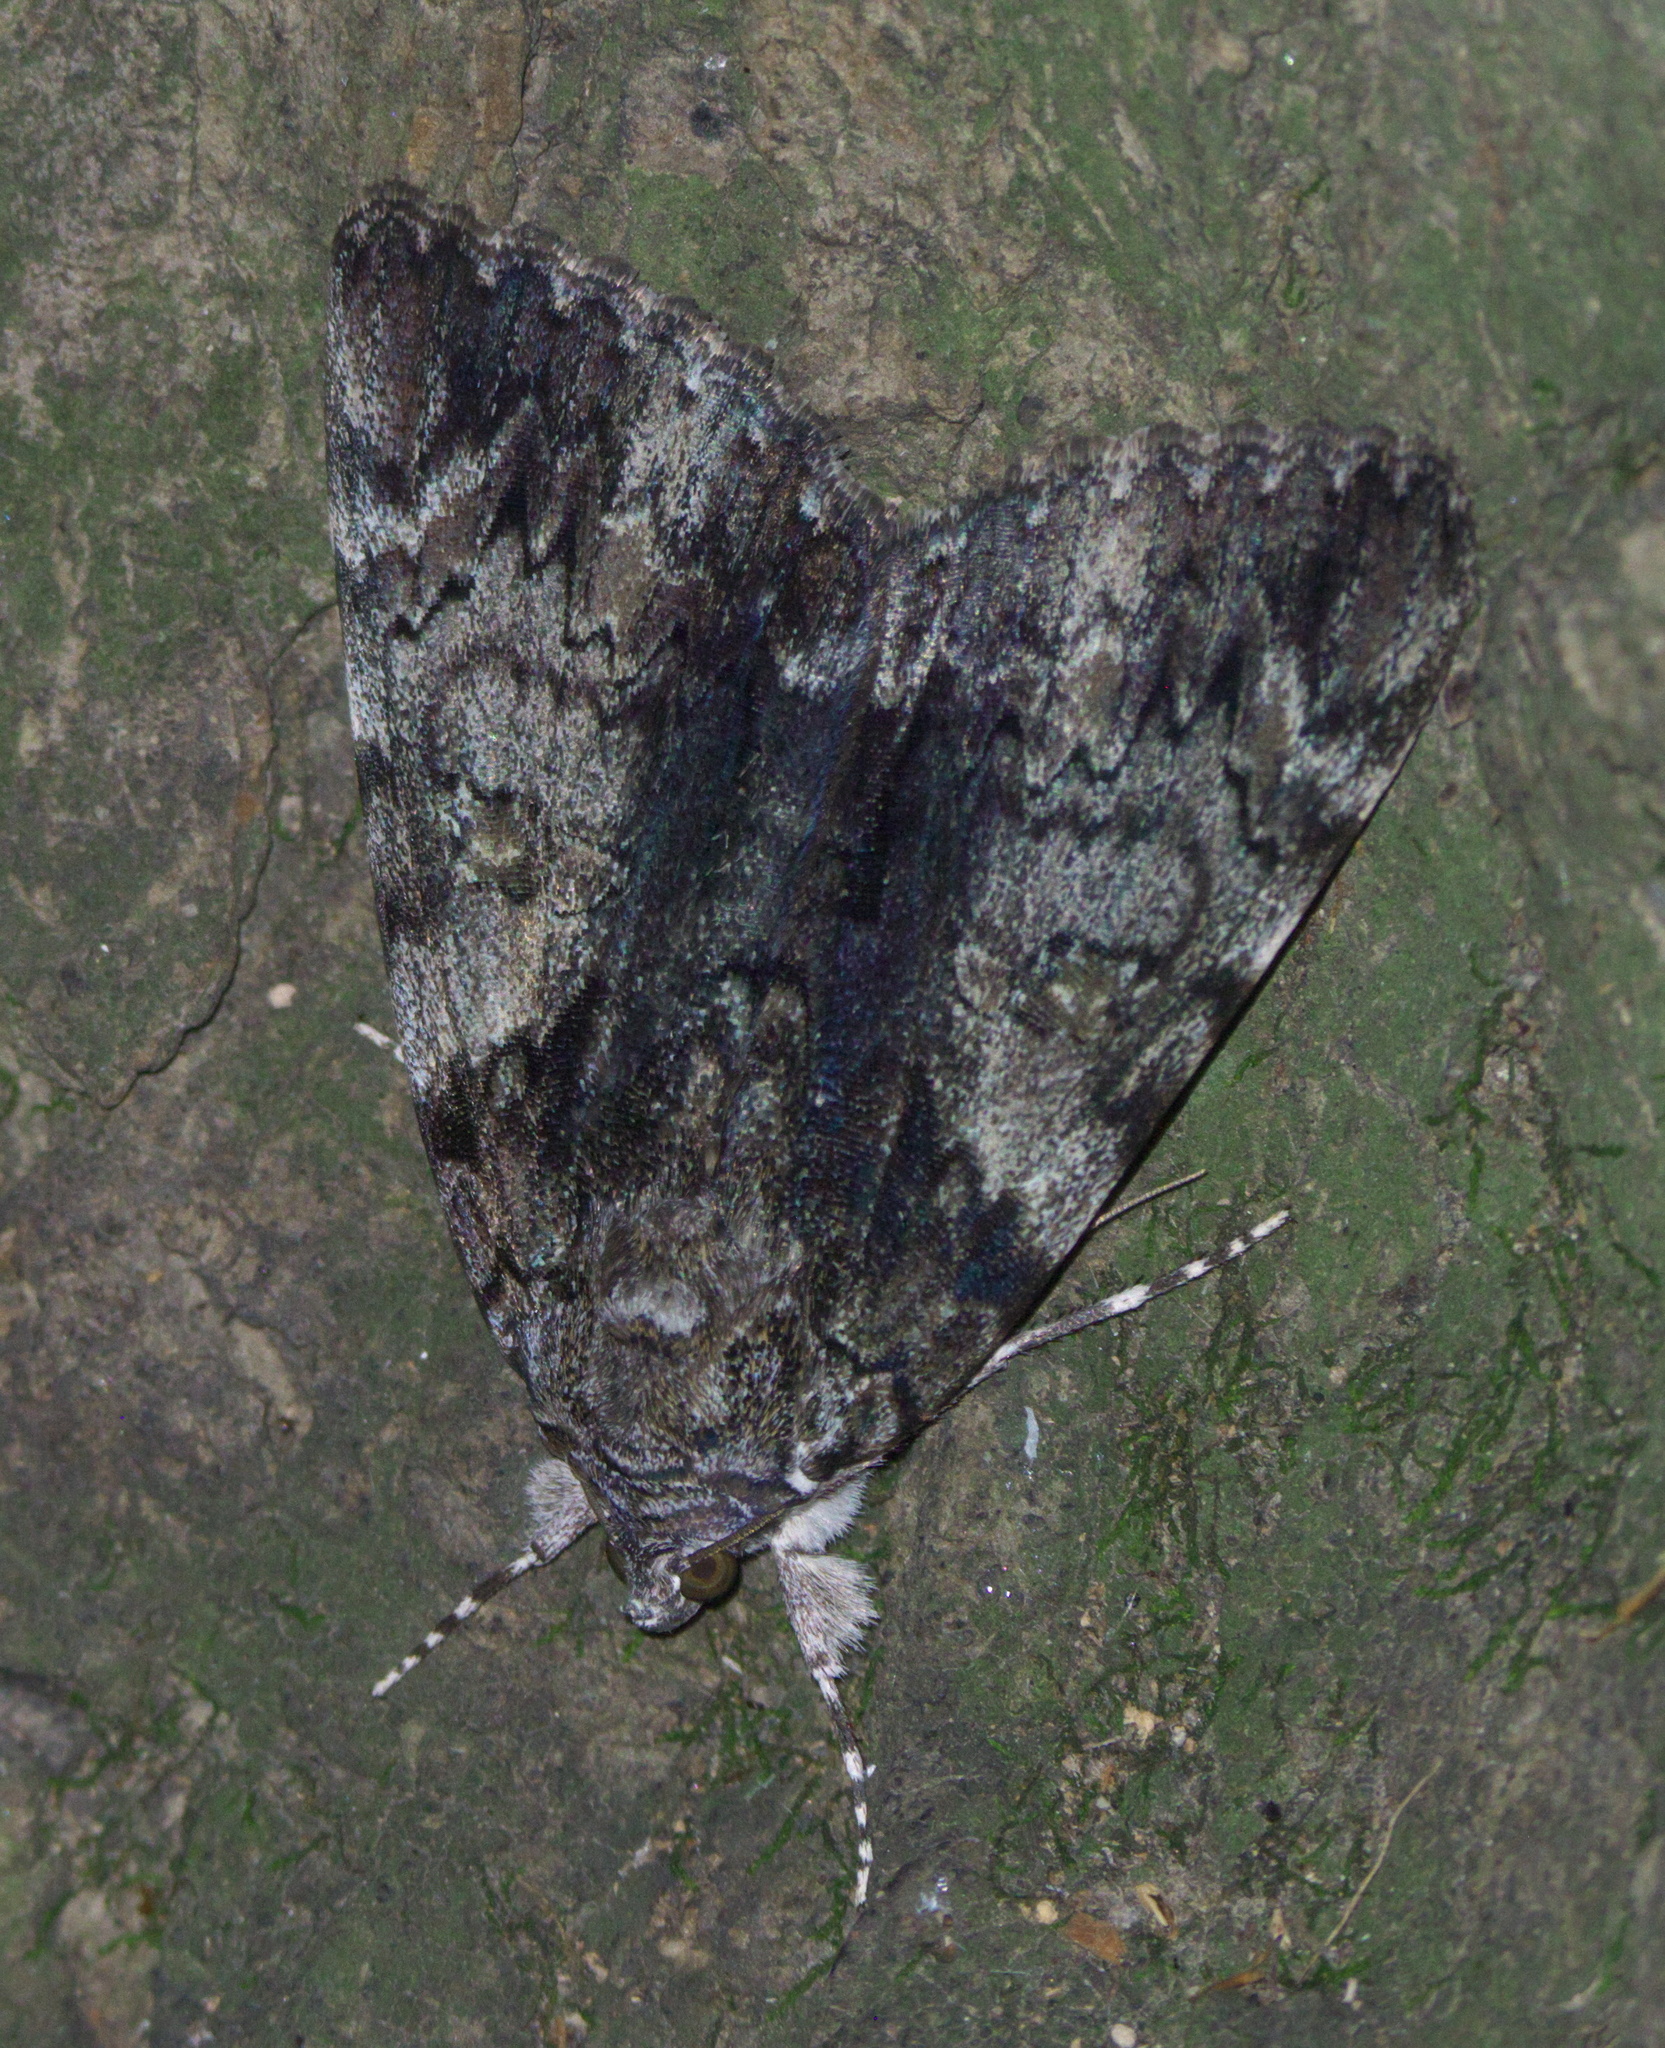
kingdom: Animalia
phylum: Arthropoda
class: Insecta
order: Lepidoptera
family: Erebidae
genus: Catocala
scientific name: Catocala lacrymosa
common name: Tearful underwing
